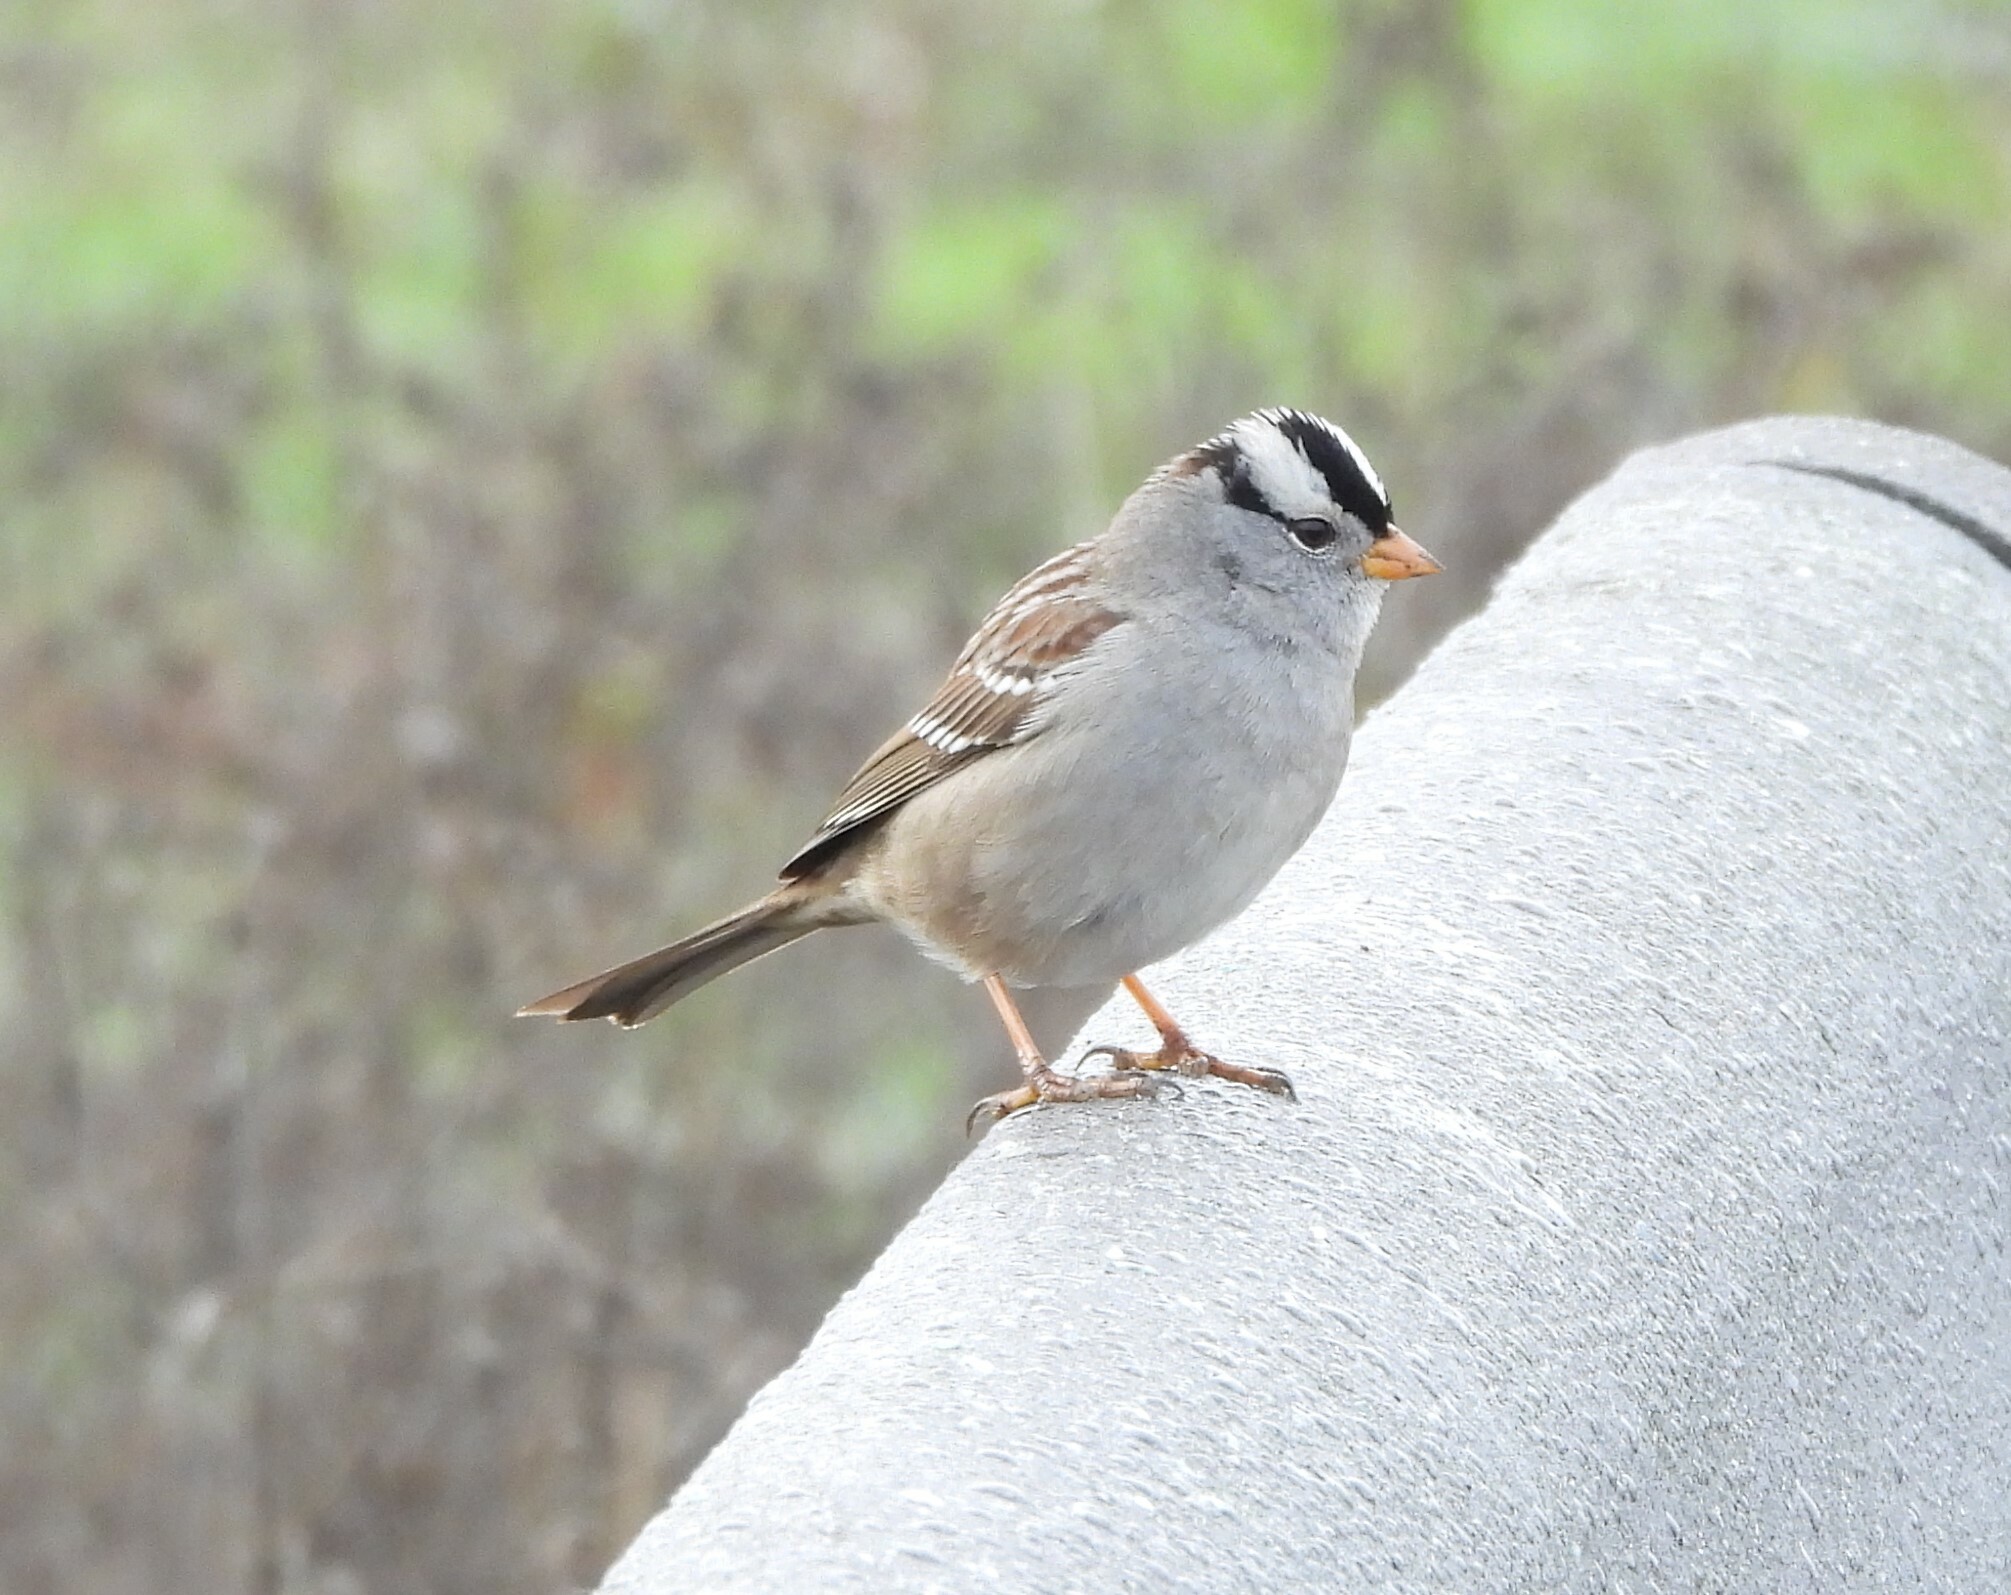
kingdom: Animalia
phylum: Chordata
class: Aves
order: Passeriformes
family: Passerellidae
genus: Zonotrichia
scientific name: Zonotrichia leucophrys
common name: White-crowned sparrow
